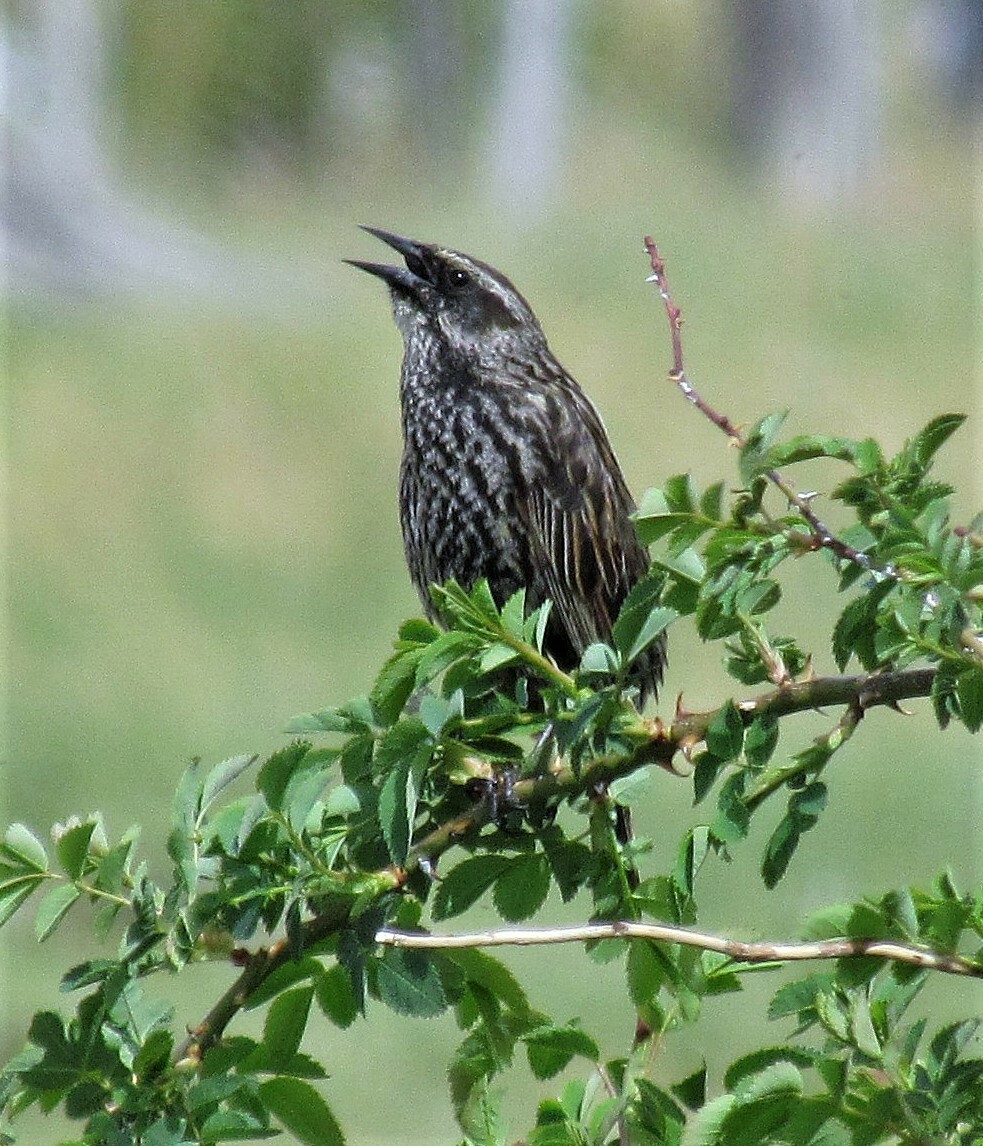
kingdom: Animalia
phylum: Chordata
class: Aves
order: Passeriformes
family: Icteridae
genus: Agelasticus
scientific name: Agelasticus thilius
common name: Yellow-winged blackbird
